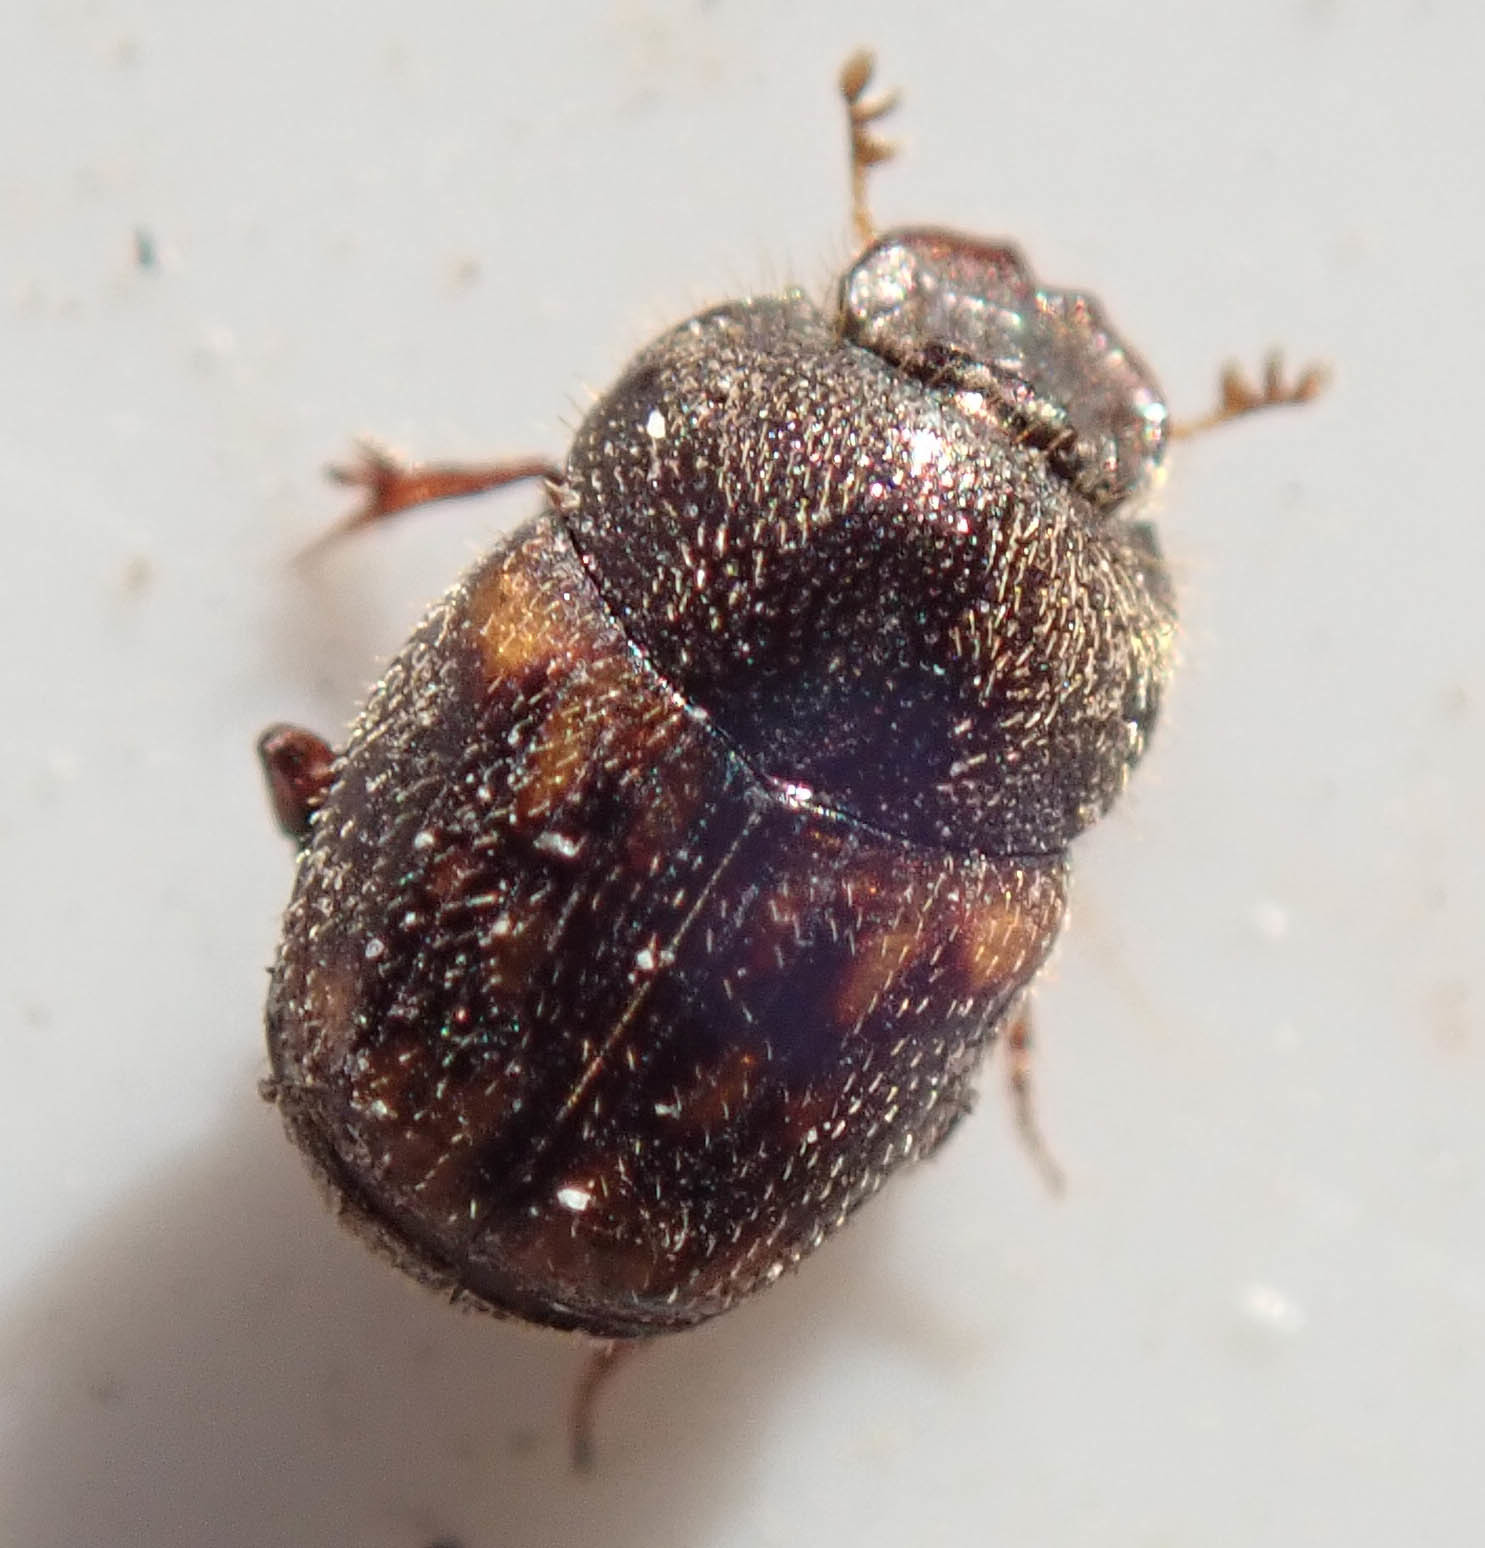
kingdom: Animalia
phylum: Arthropoda
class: Insecta
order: Coleoptera
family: Scarabaeidae
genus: Onthophagus
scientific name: Onthophagus suffusus
